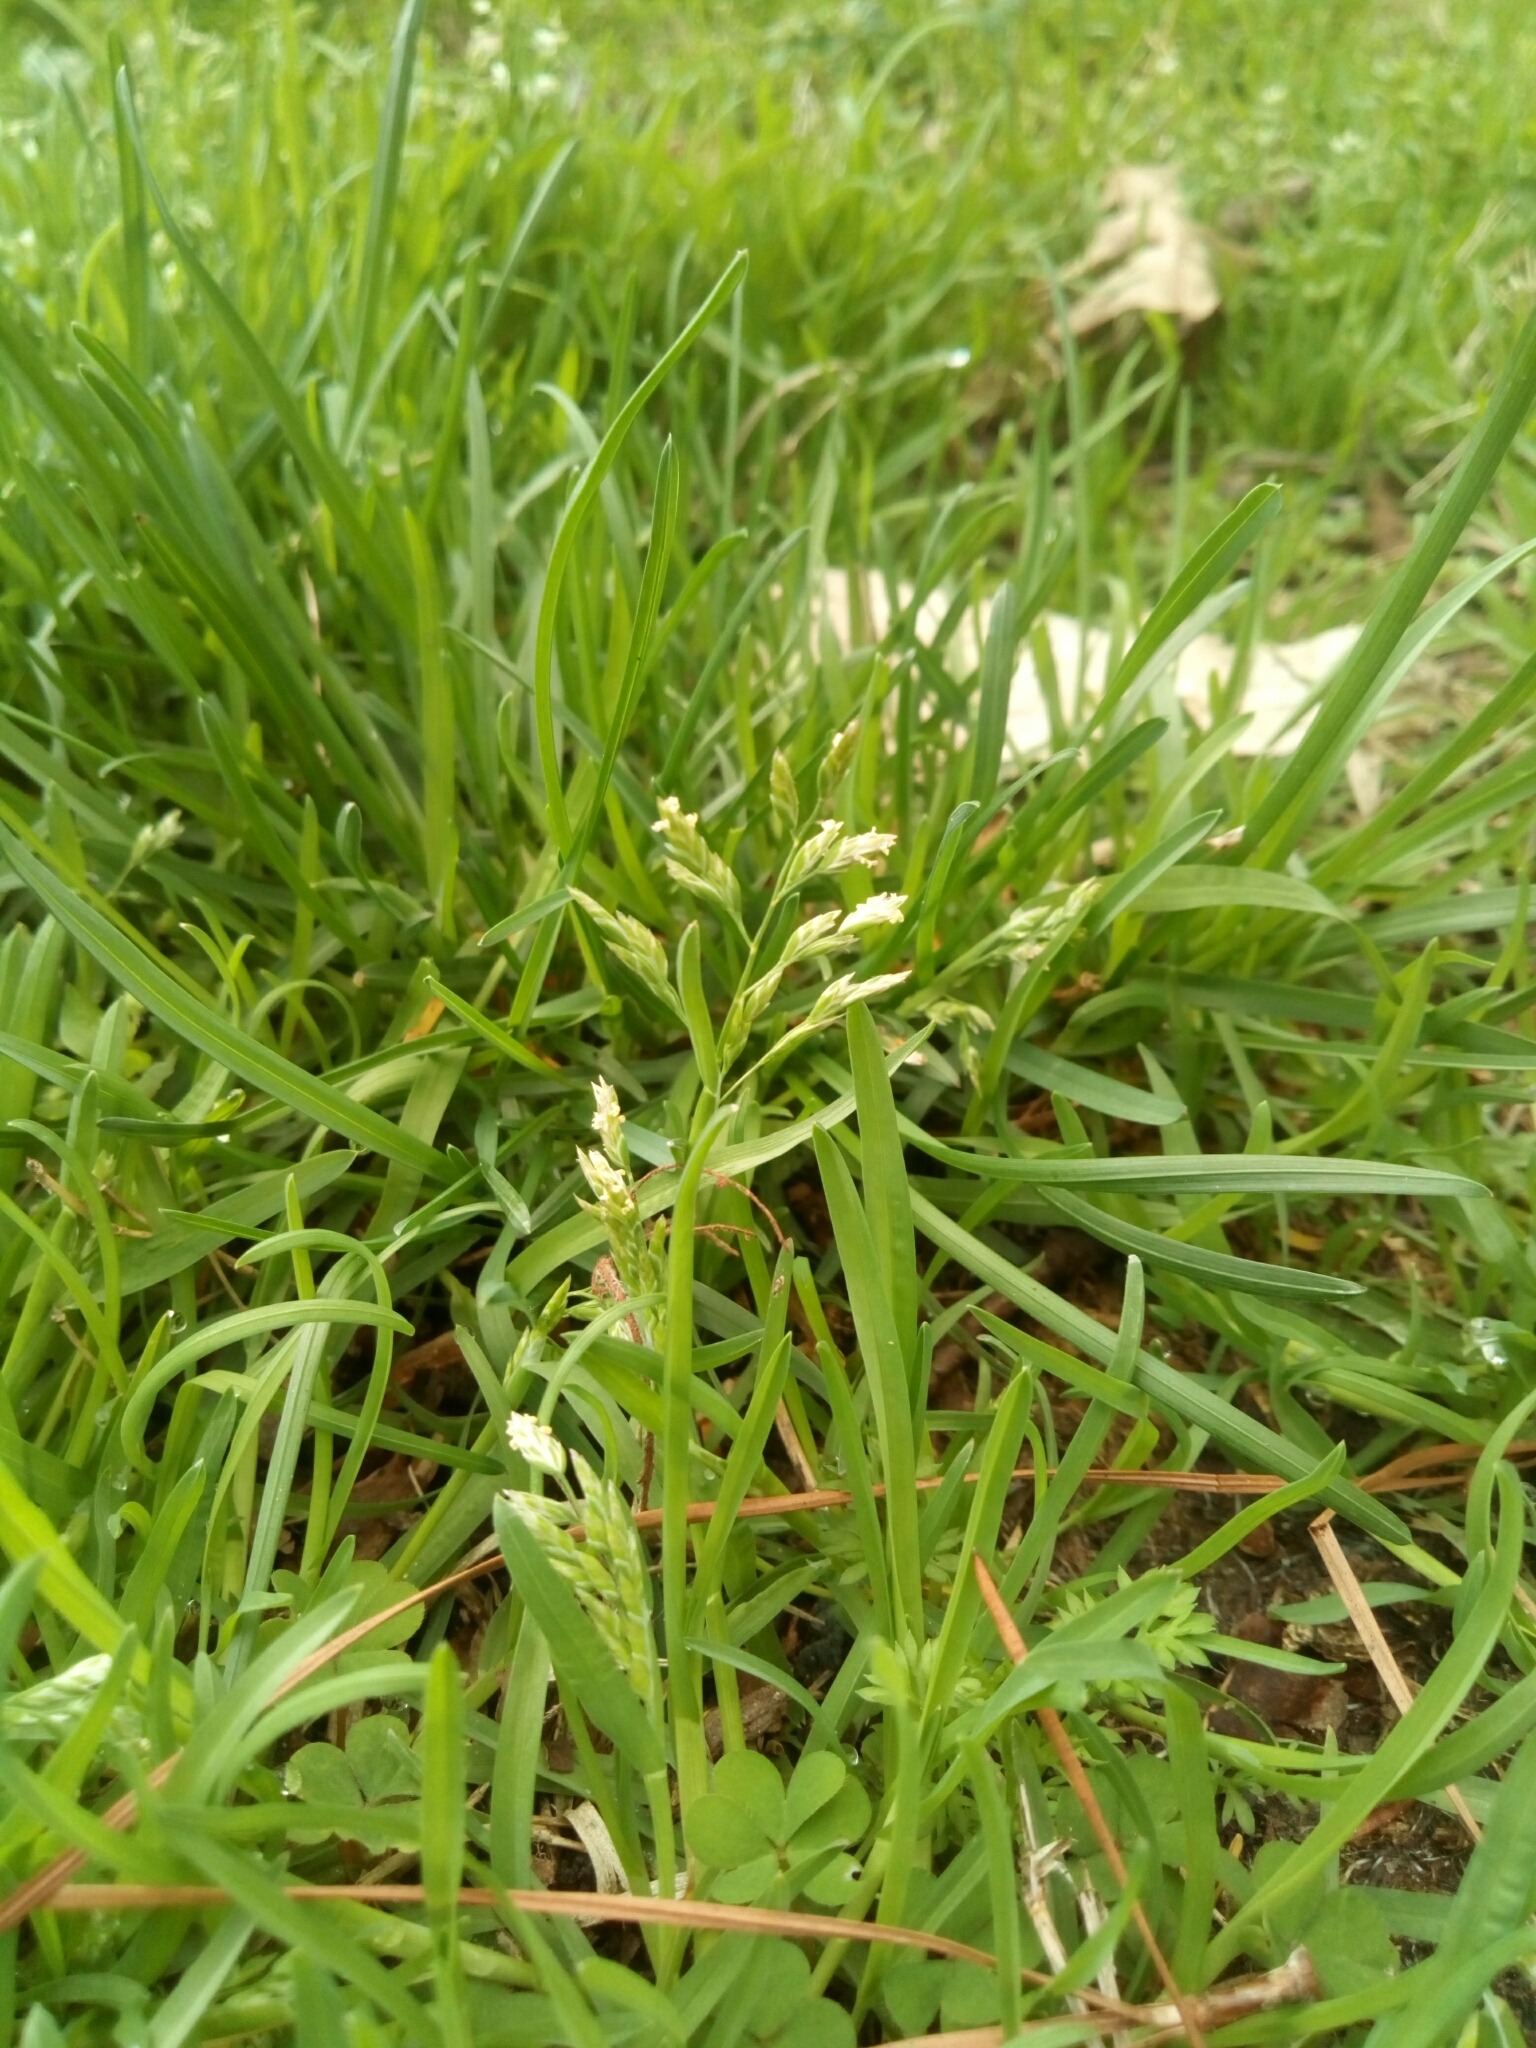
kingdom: Plantae
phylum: Tracheophyta
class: Liliopsida
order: Poales
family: Poaceae
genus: Poa
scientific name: Poa annua
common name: Annual bluegrass
